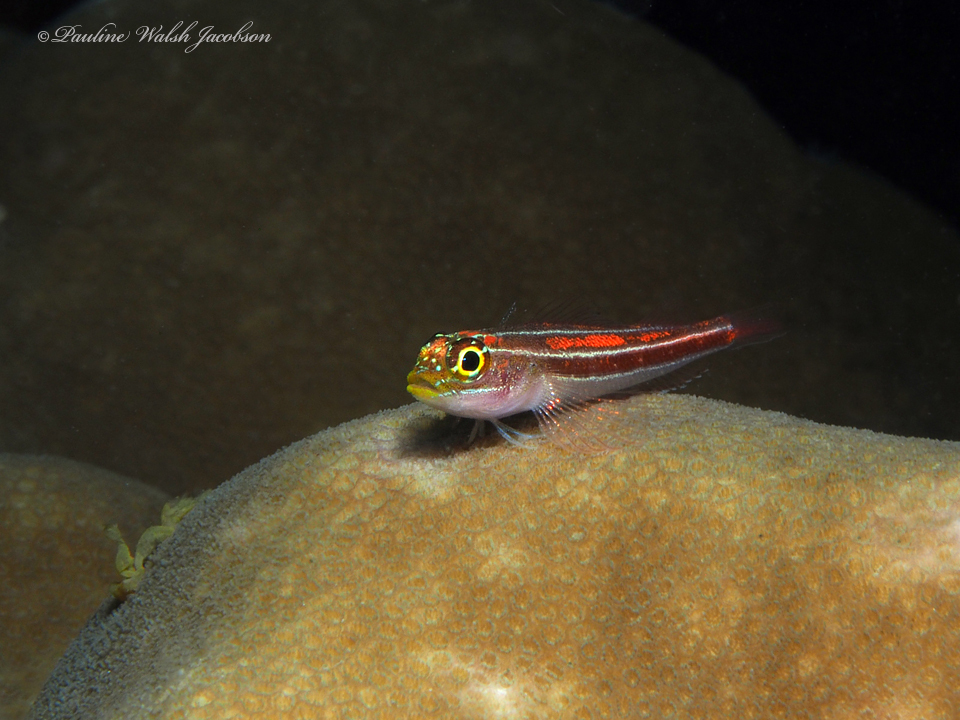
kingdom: Animalia
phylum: Chordata
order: Perciformes
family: Tripterygiidae
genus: Helcogramma
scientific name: Helcogramma striata
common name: Striped threefin
